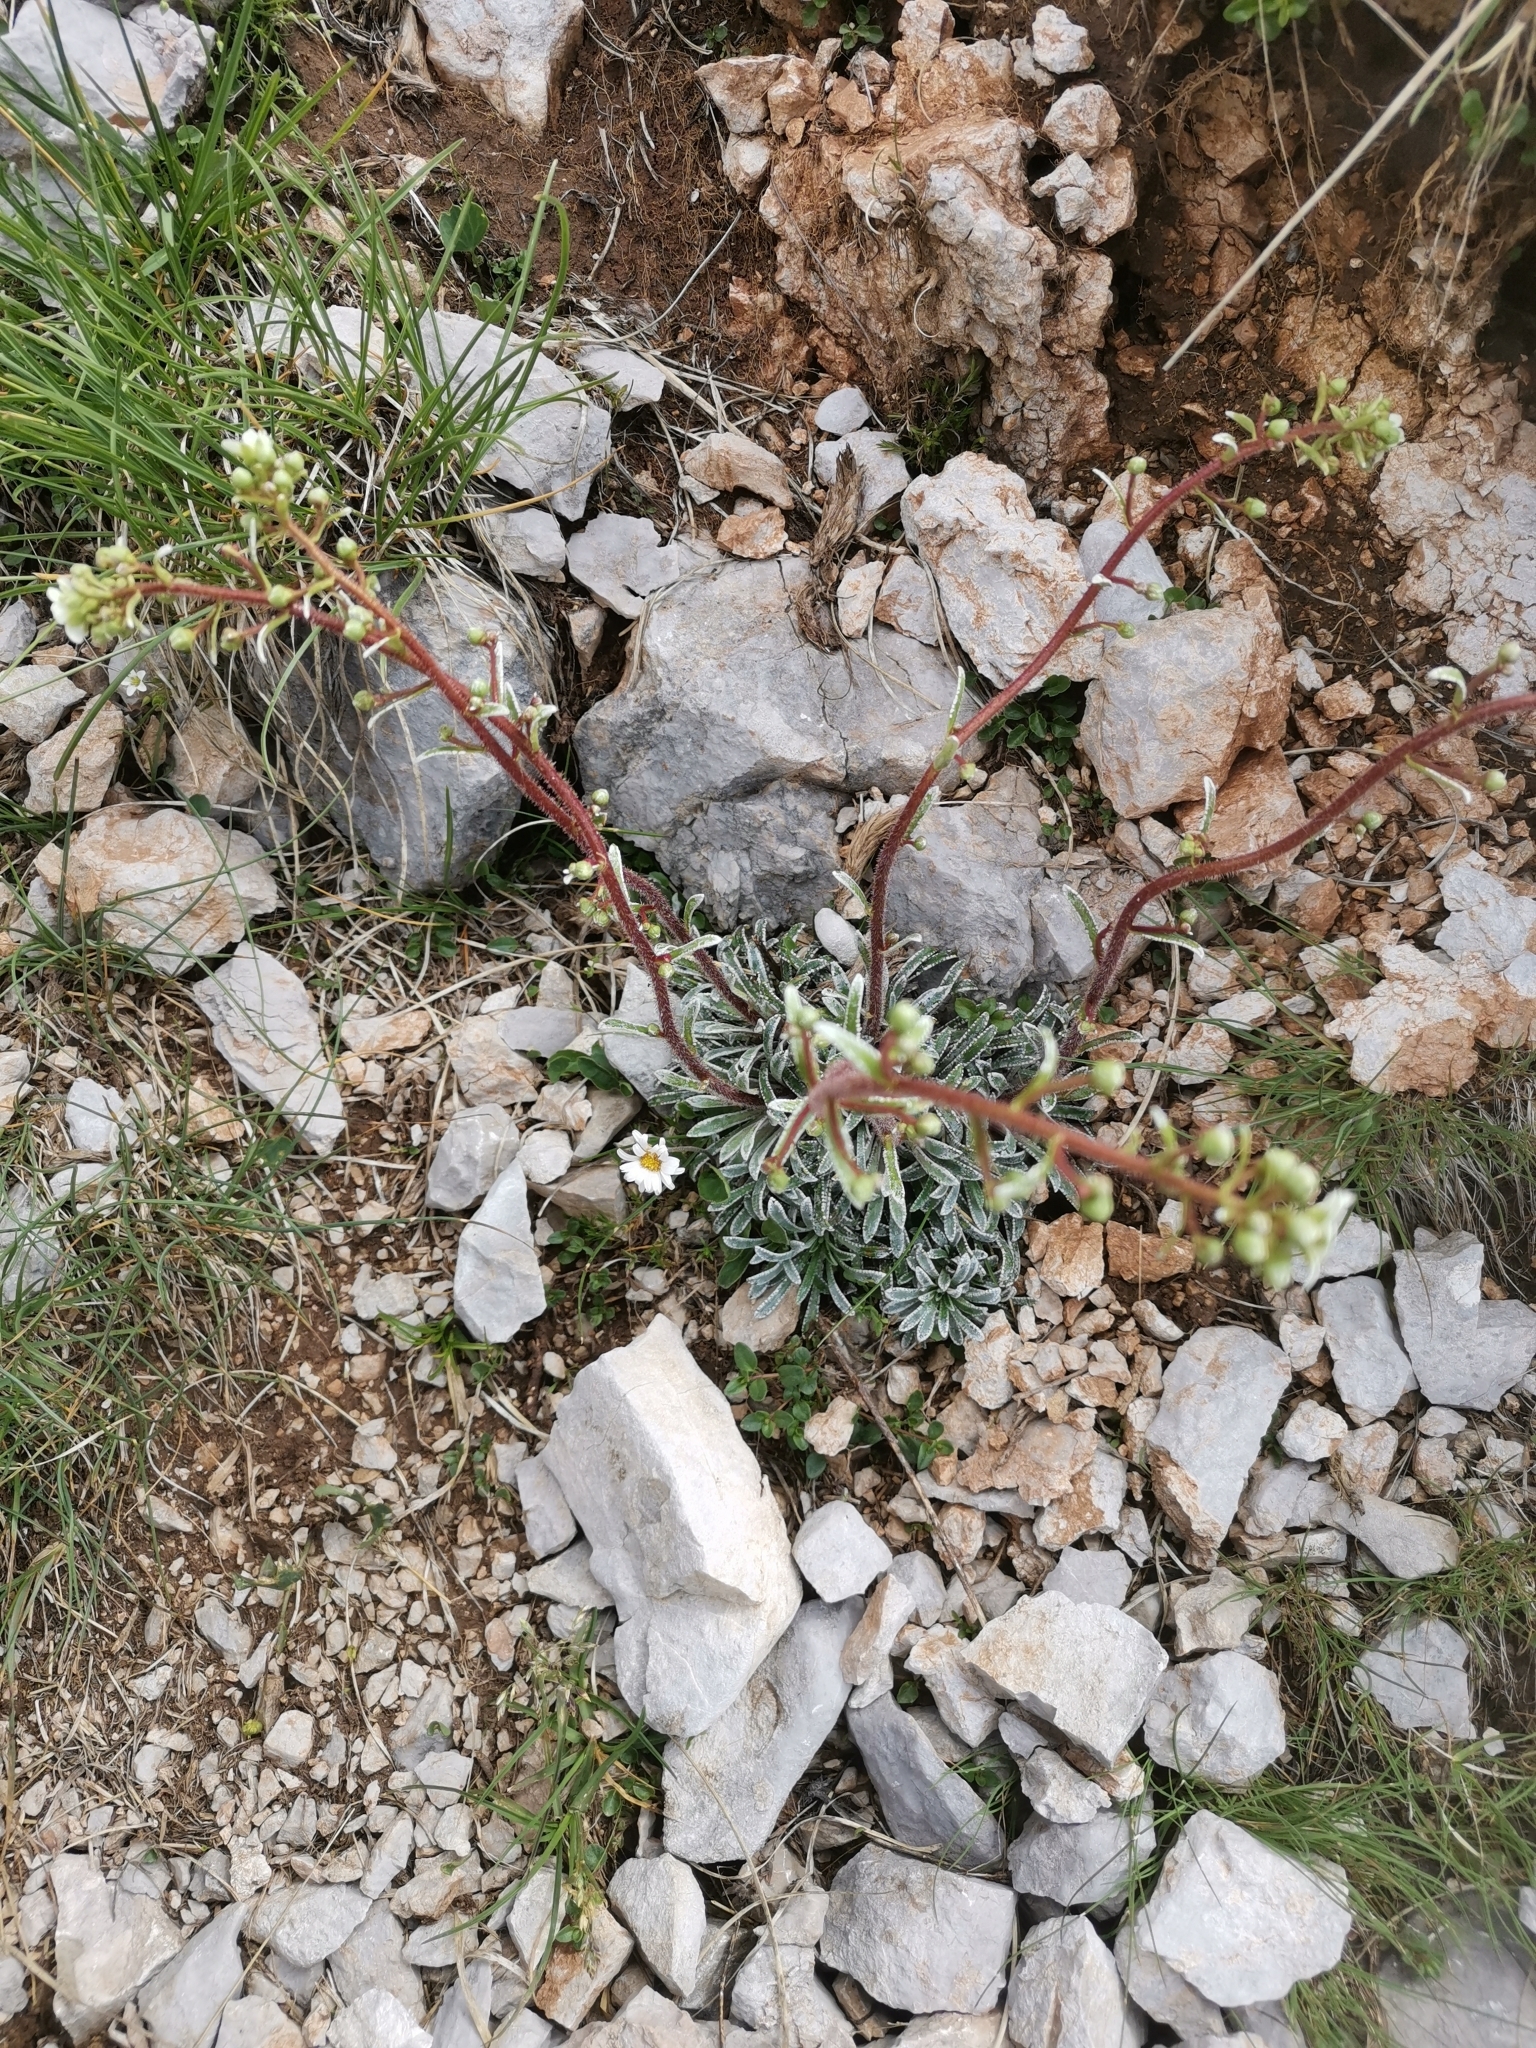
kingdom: Plantae
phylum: Tracheophyta
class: Magnoliopsida
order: Saxifragales
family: Saxifragaceae
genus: Saxifraga
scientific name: Saxifraga crustata
